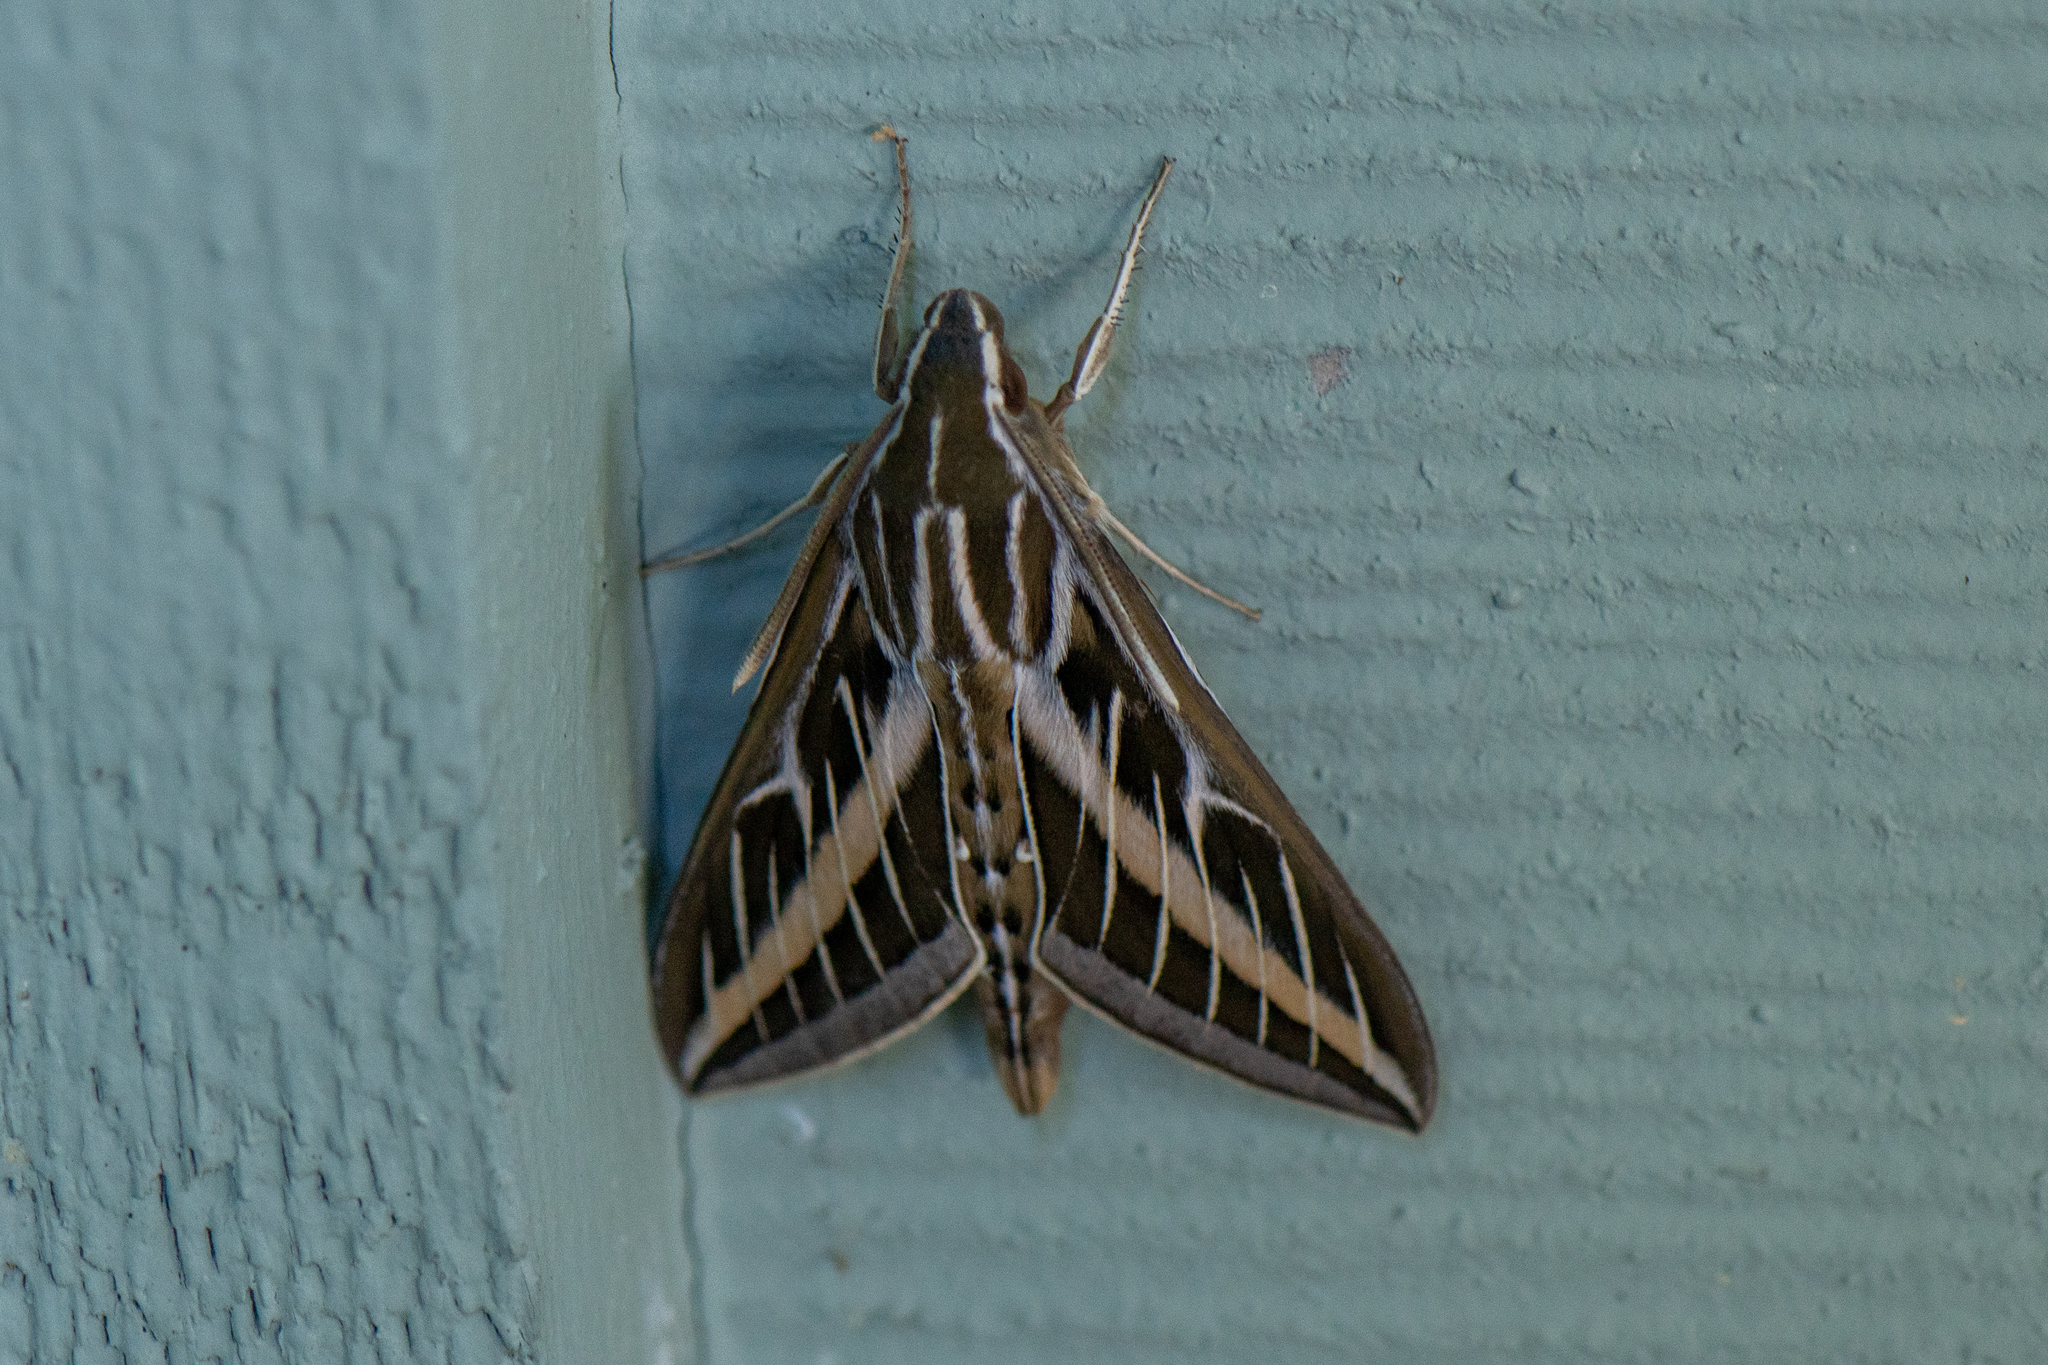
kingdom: Animalia
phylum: Arthropoda
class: Insecta
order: Lepidoptera
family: Sphingidae
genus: Hyles
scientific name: Hyles lineata
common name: White-lined sphinx
